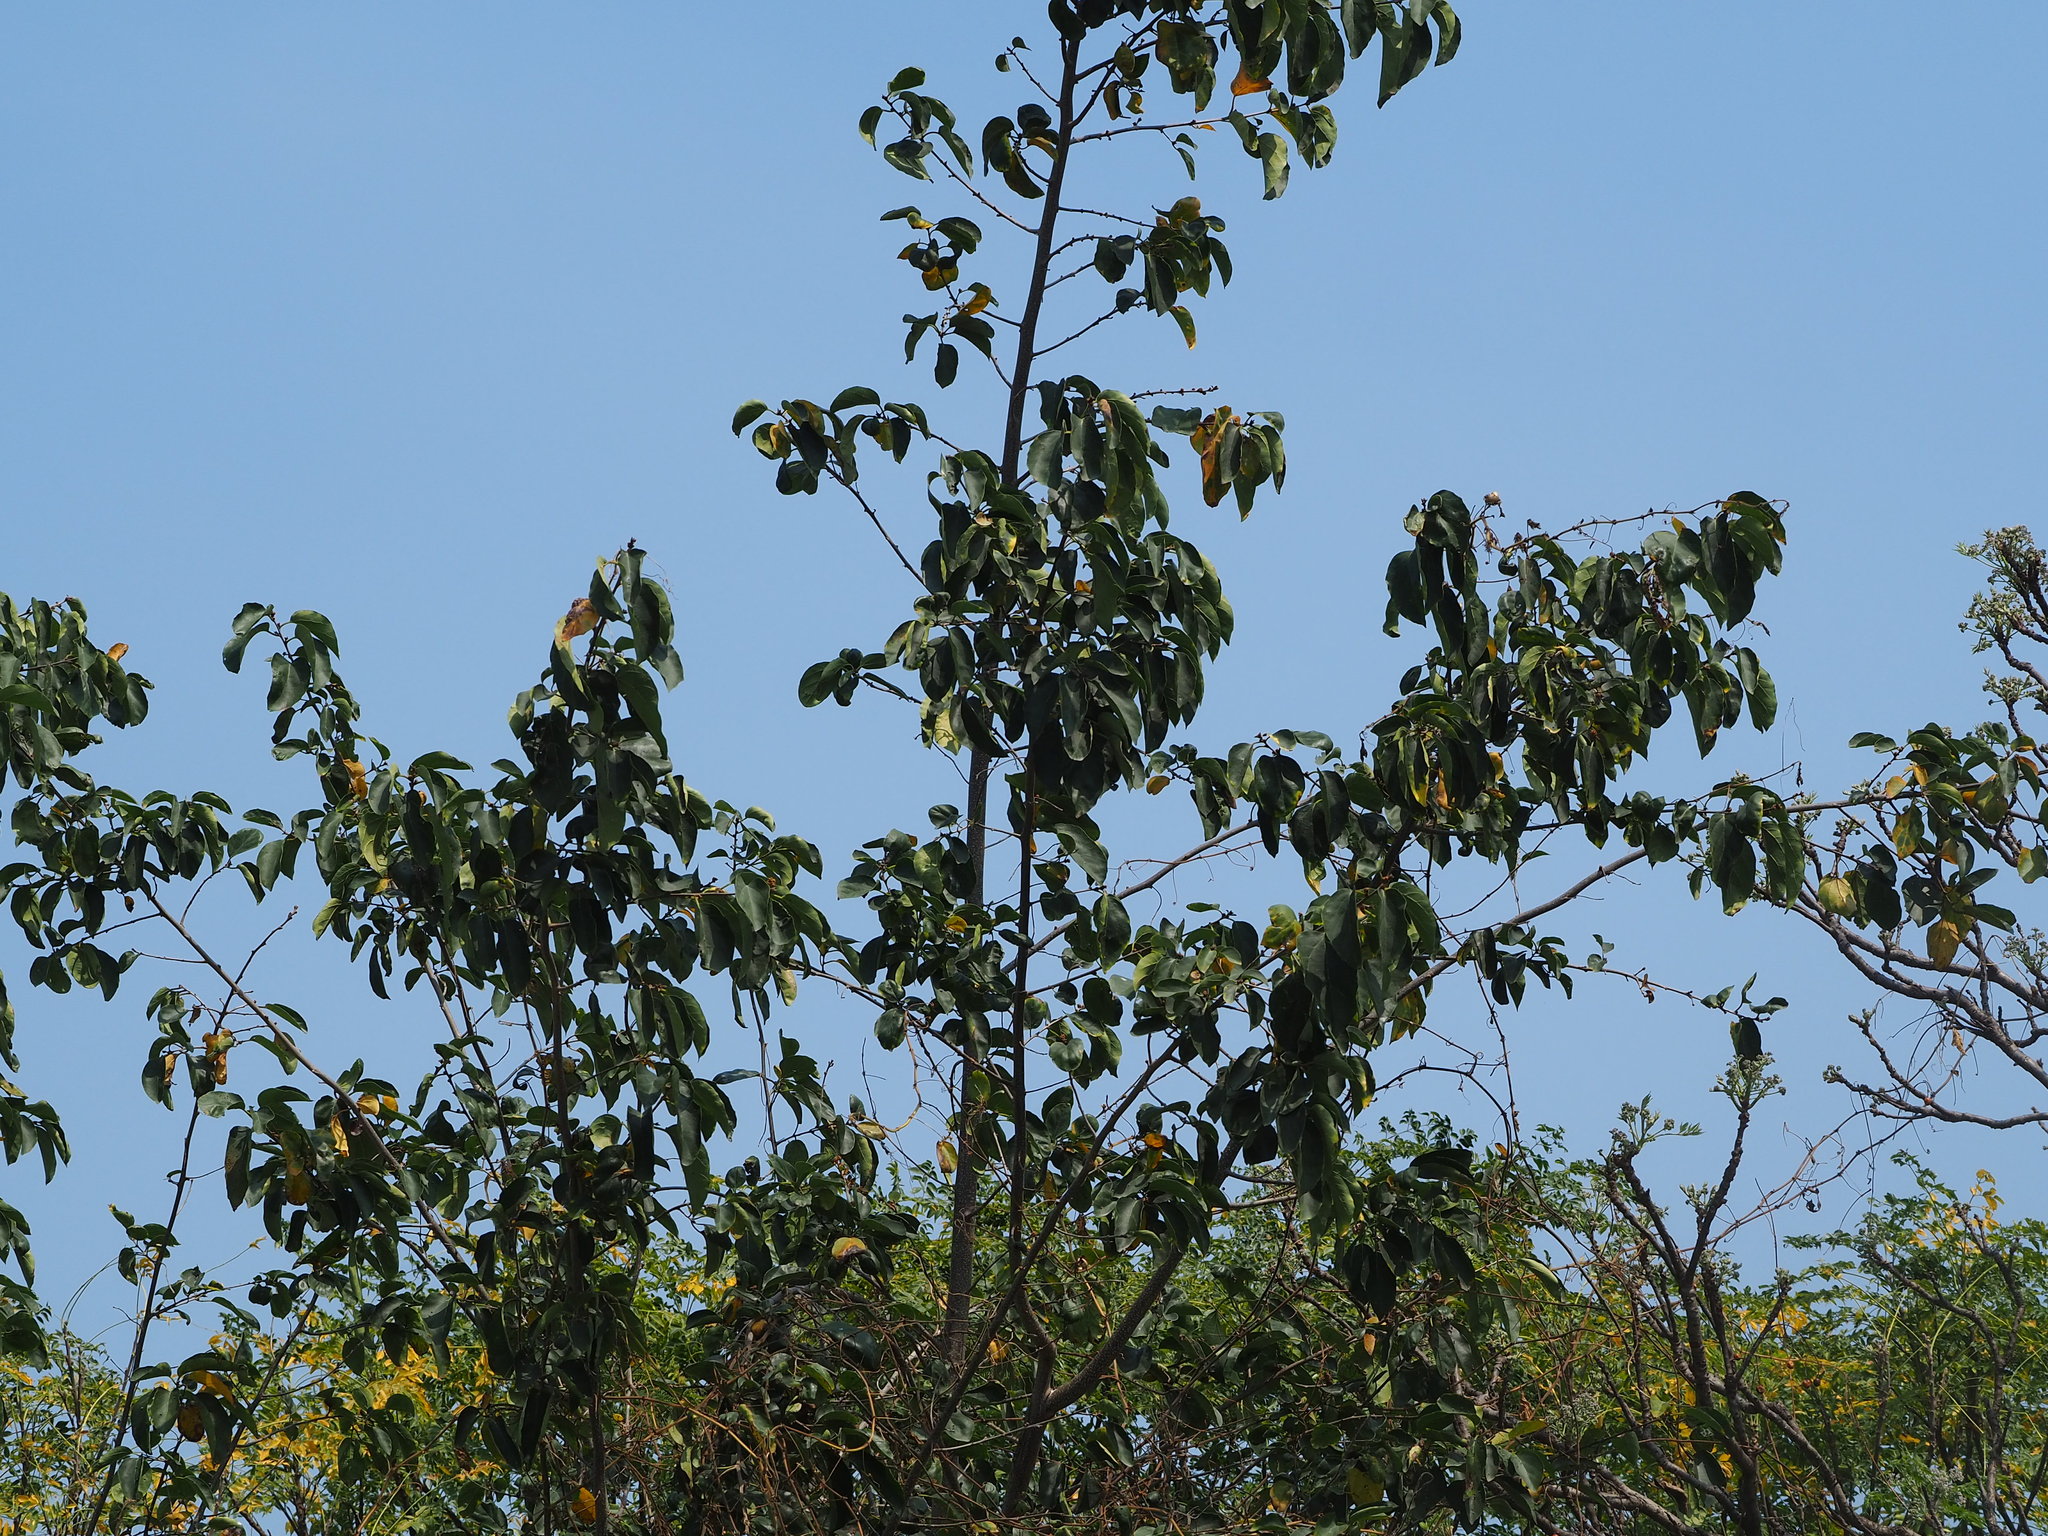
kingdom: Plantae
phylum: Tracheophyta
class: Magnoliopsida
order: Boraginales
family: Cordiaceae
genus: Cordia
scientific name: Cordia dichotoma
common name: Fragrant manjack
